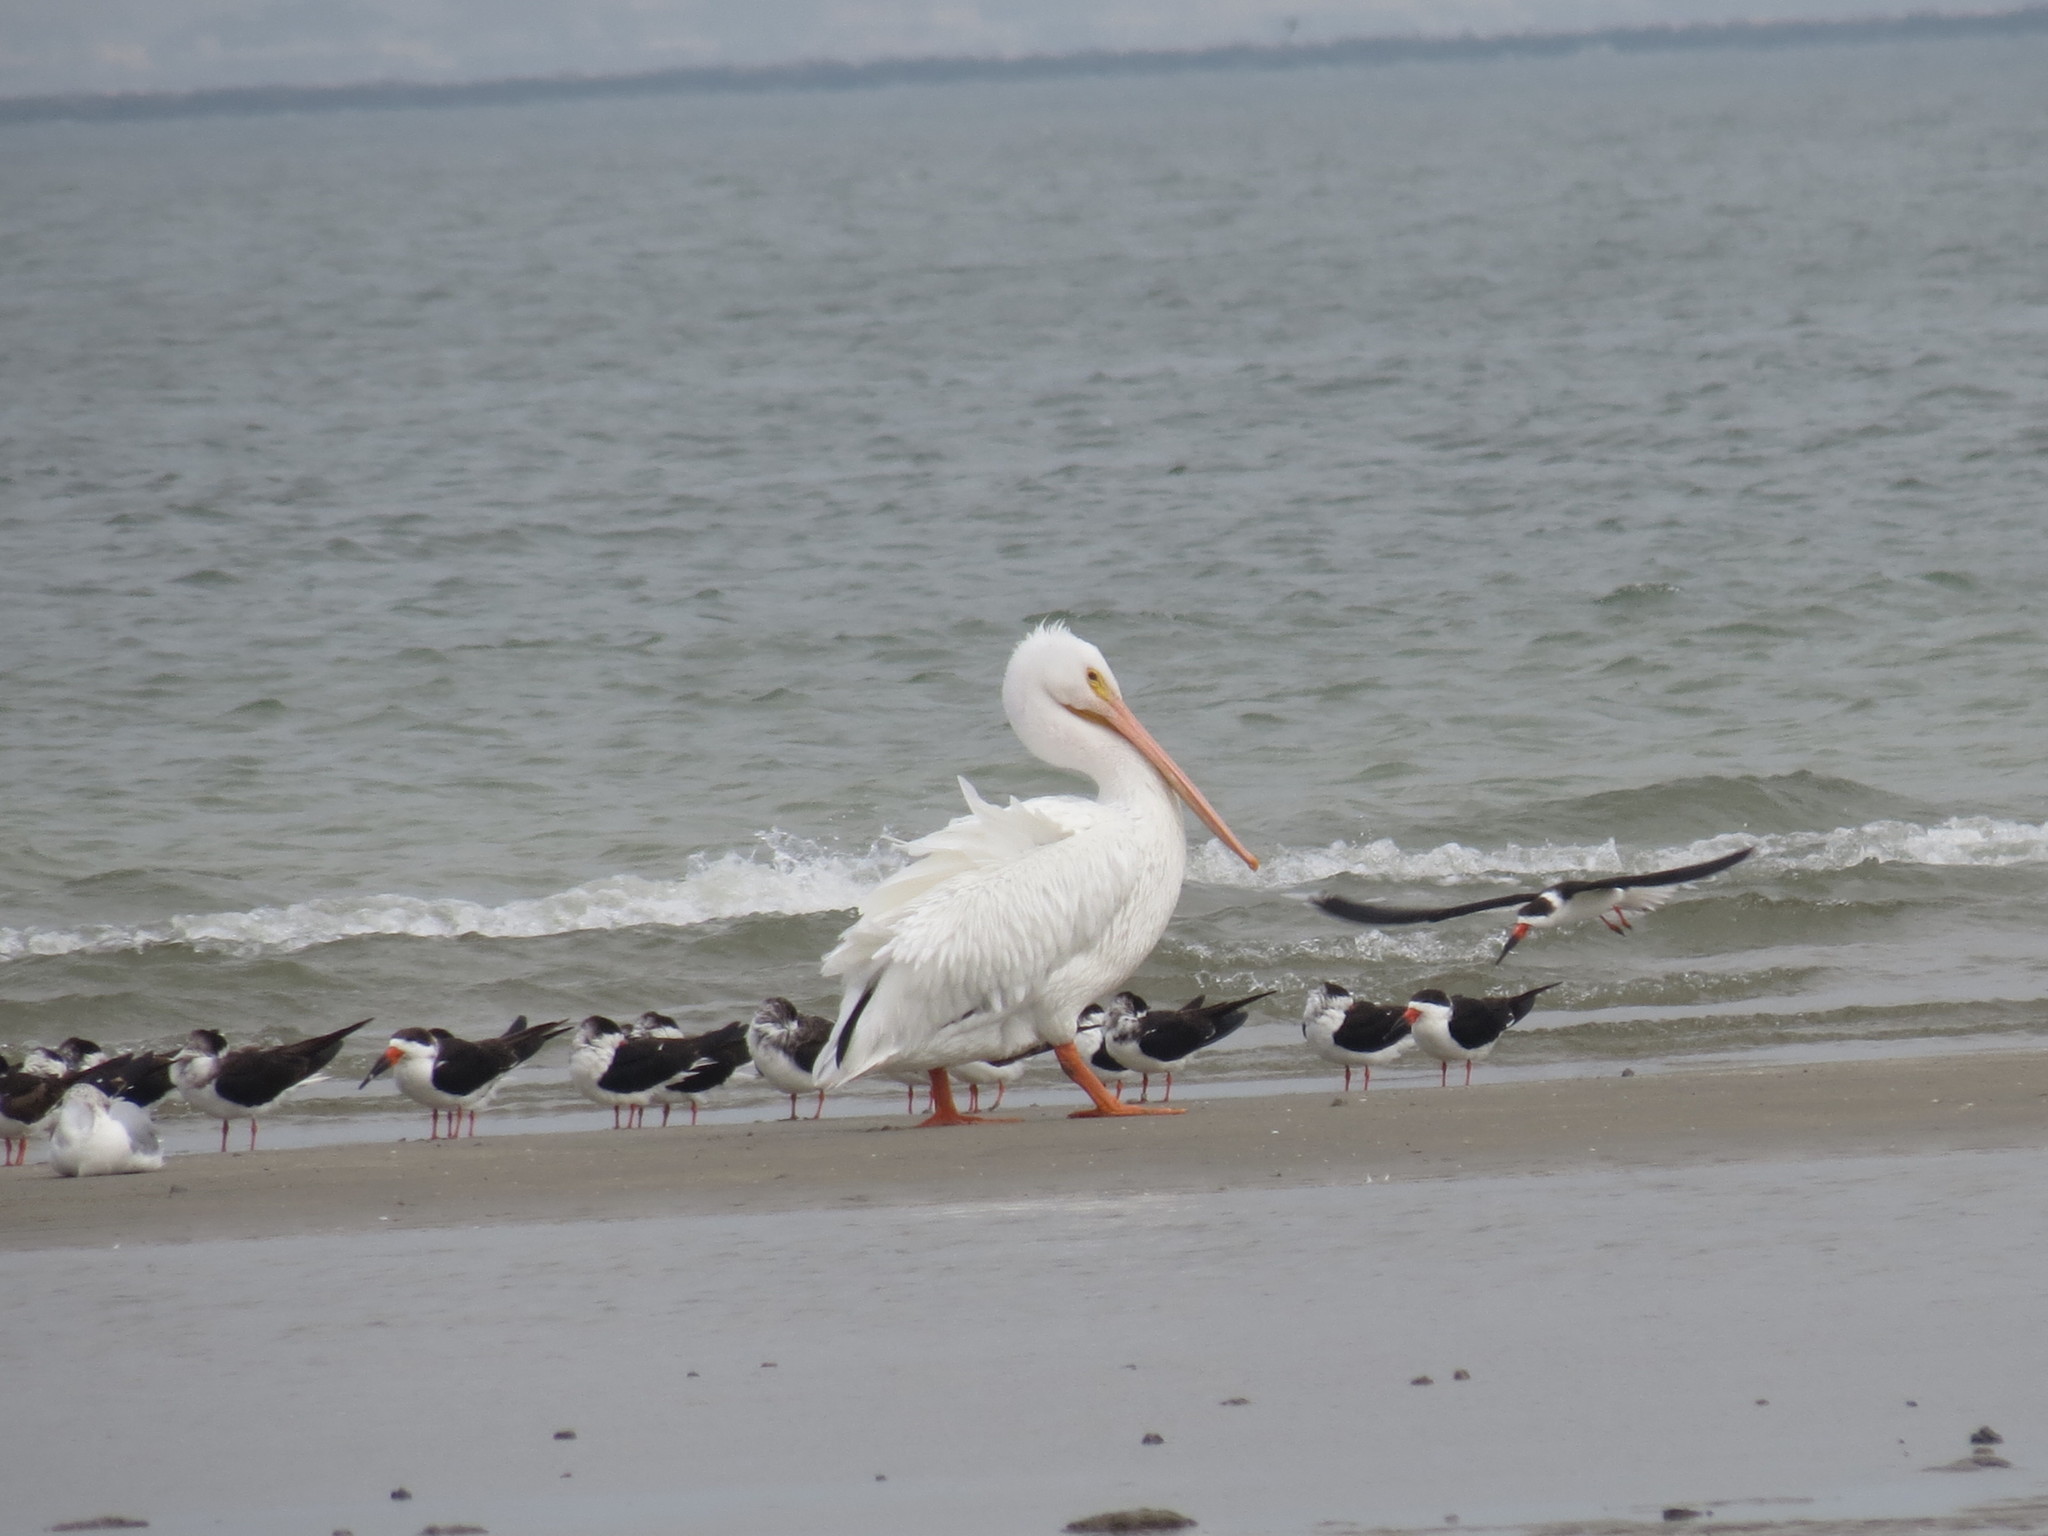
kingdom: Animalia
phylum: Chordata
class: Aves
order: Pelecaniformes
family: Pelecanidae
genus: Pelecanus
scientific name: Pelecanus erythrorhynchos
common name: American white pelican
